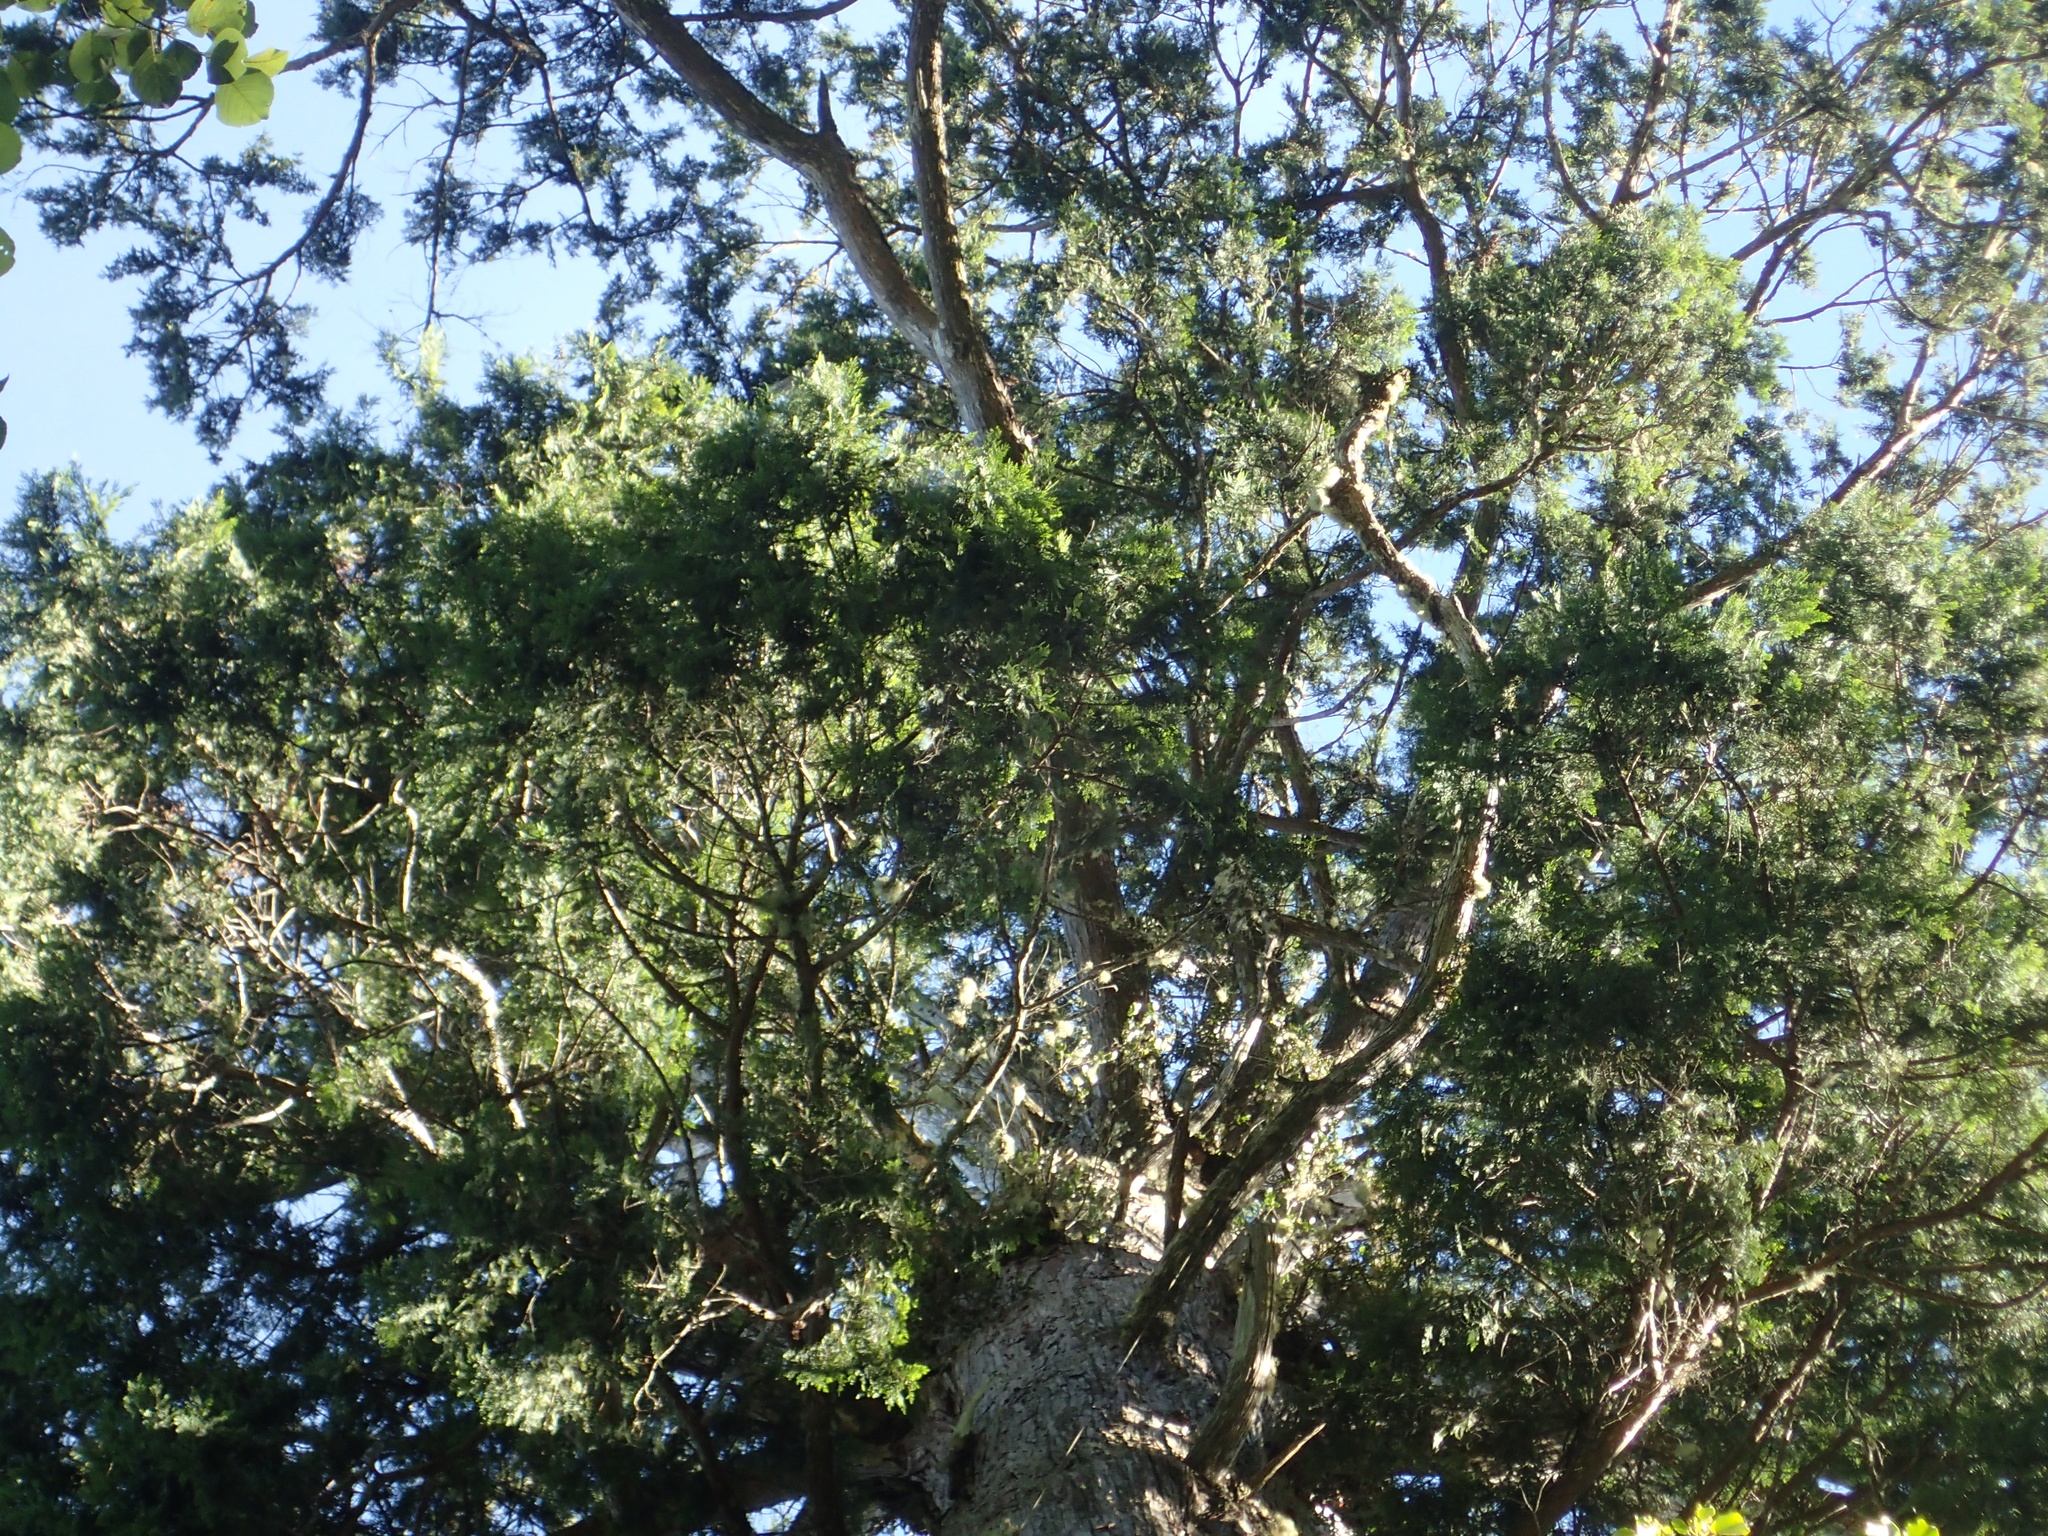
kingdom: Plantae
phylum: Tracheophyta
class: Pinopsida
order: Pinales
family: Cupressaceae
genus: Chamaecyparis
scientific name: Chamaecyparis obtusa
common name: Hinoki false cypress
